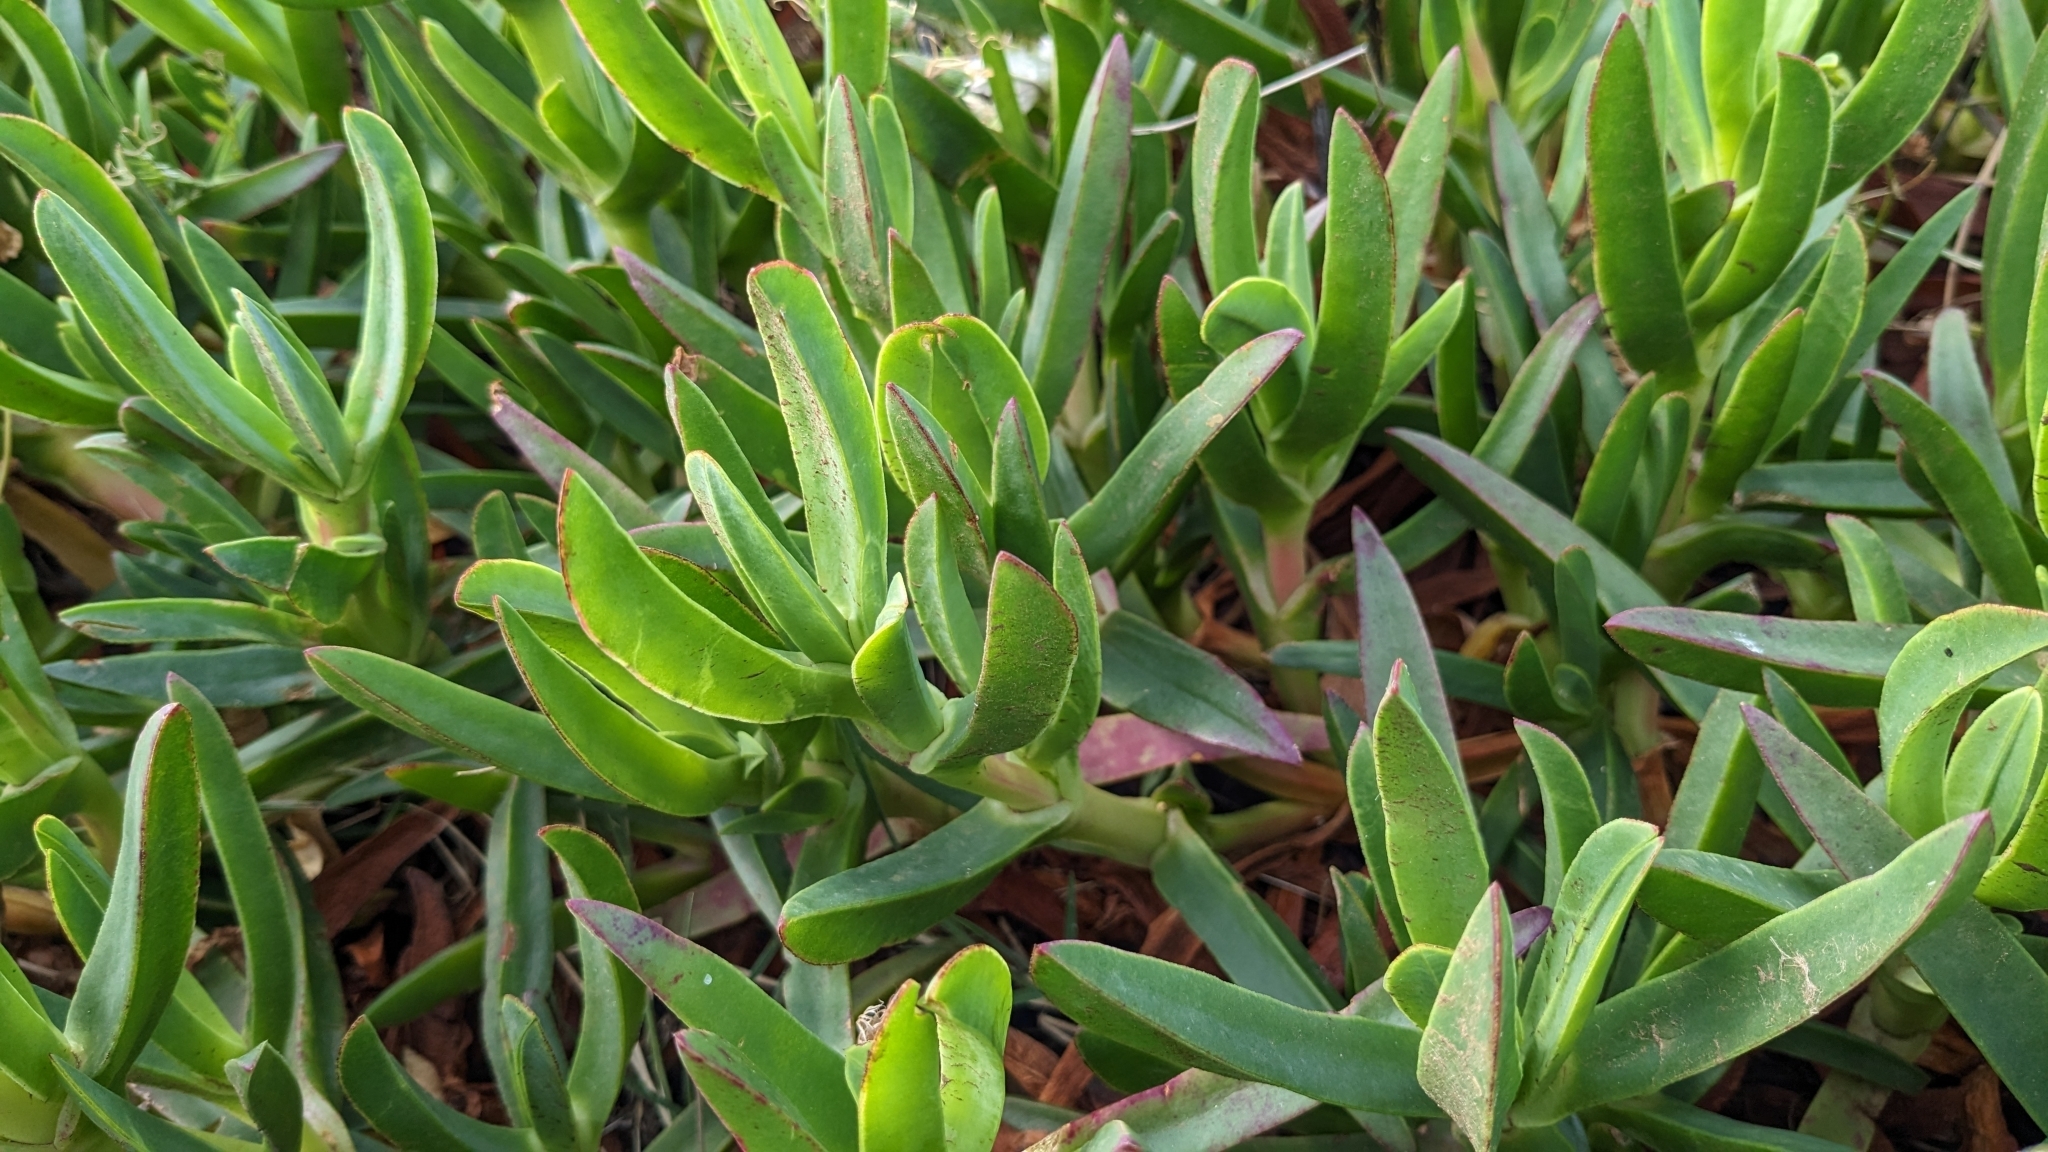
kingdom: Plantae
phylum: Tracheophyta
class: Magnoliopsida
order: Caryophyllales
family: Aizoaceae
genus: Carpobrotus
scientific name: Carpobrotus edulis
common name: Hottentot-fig
